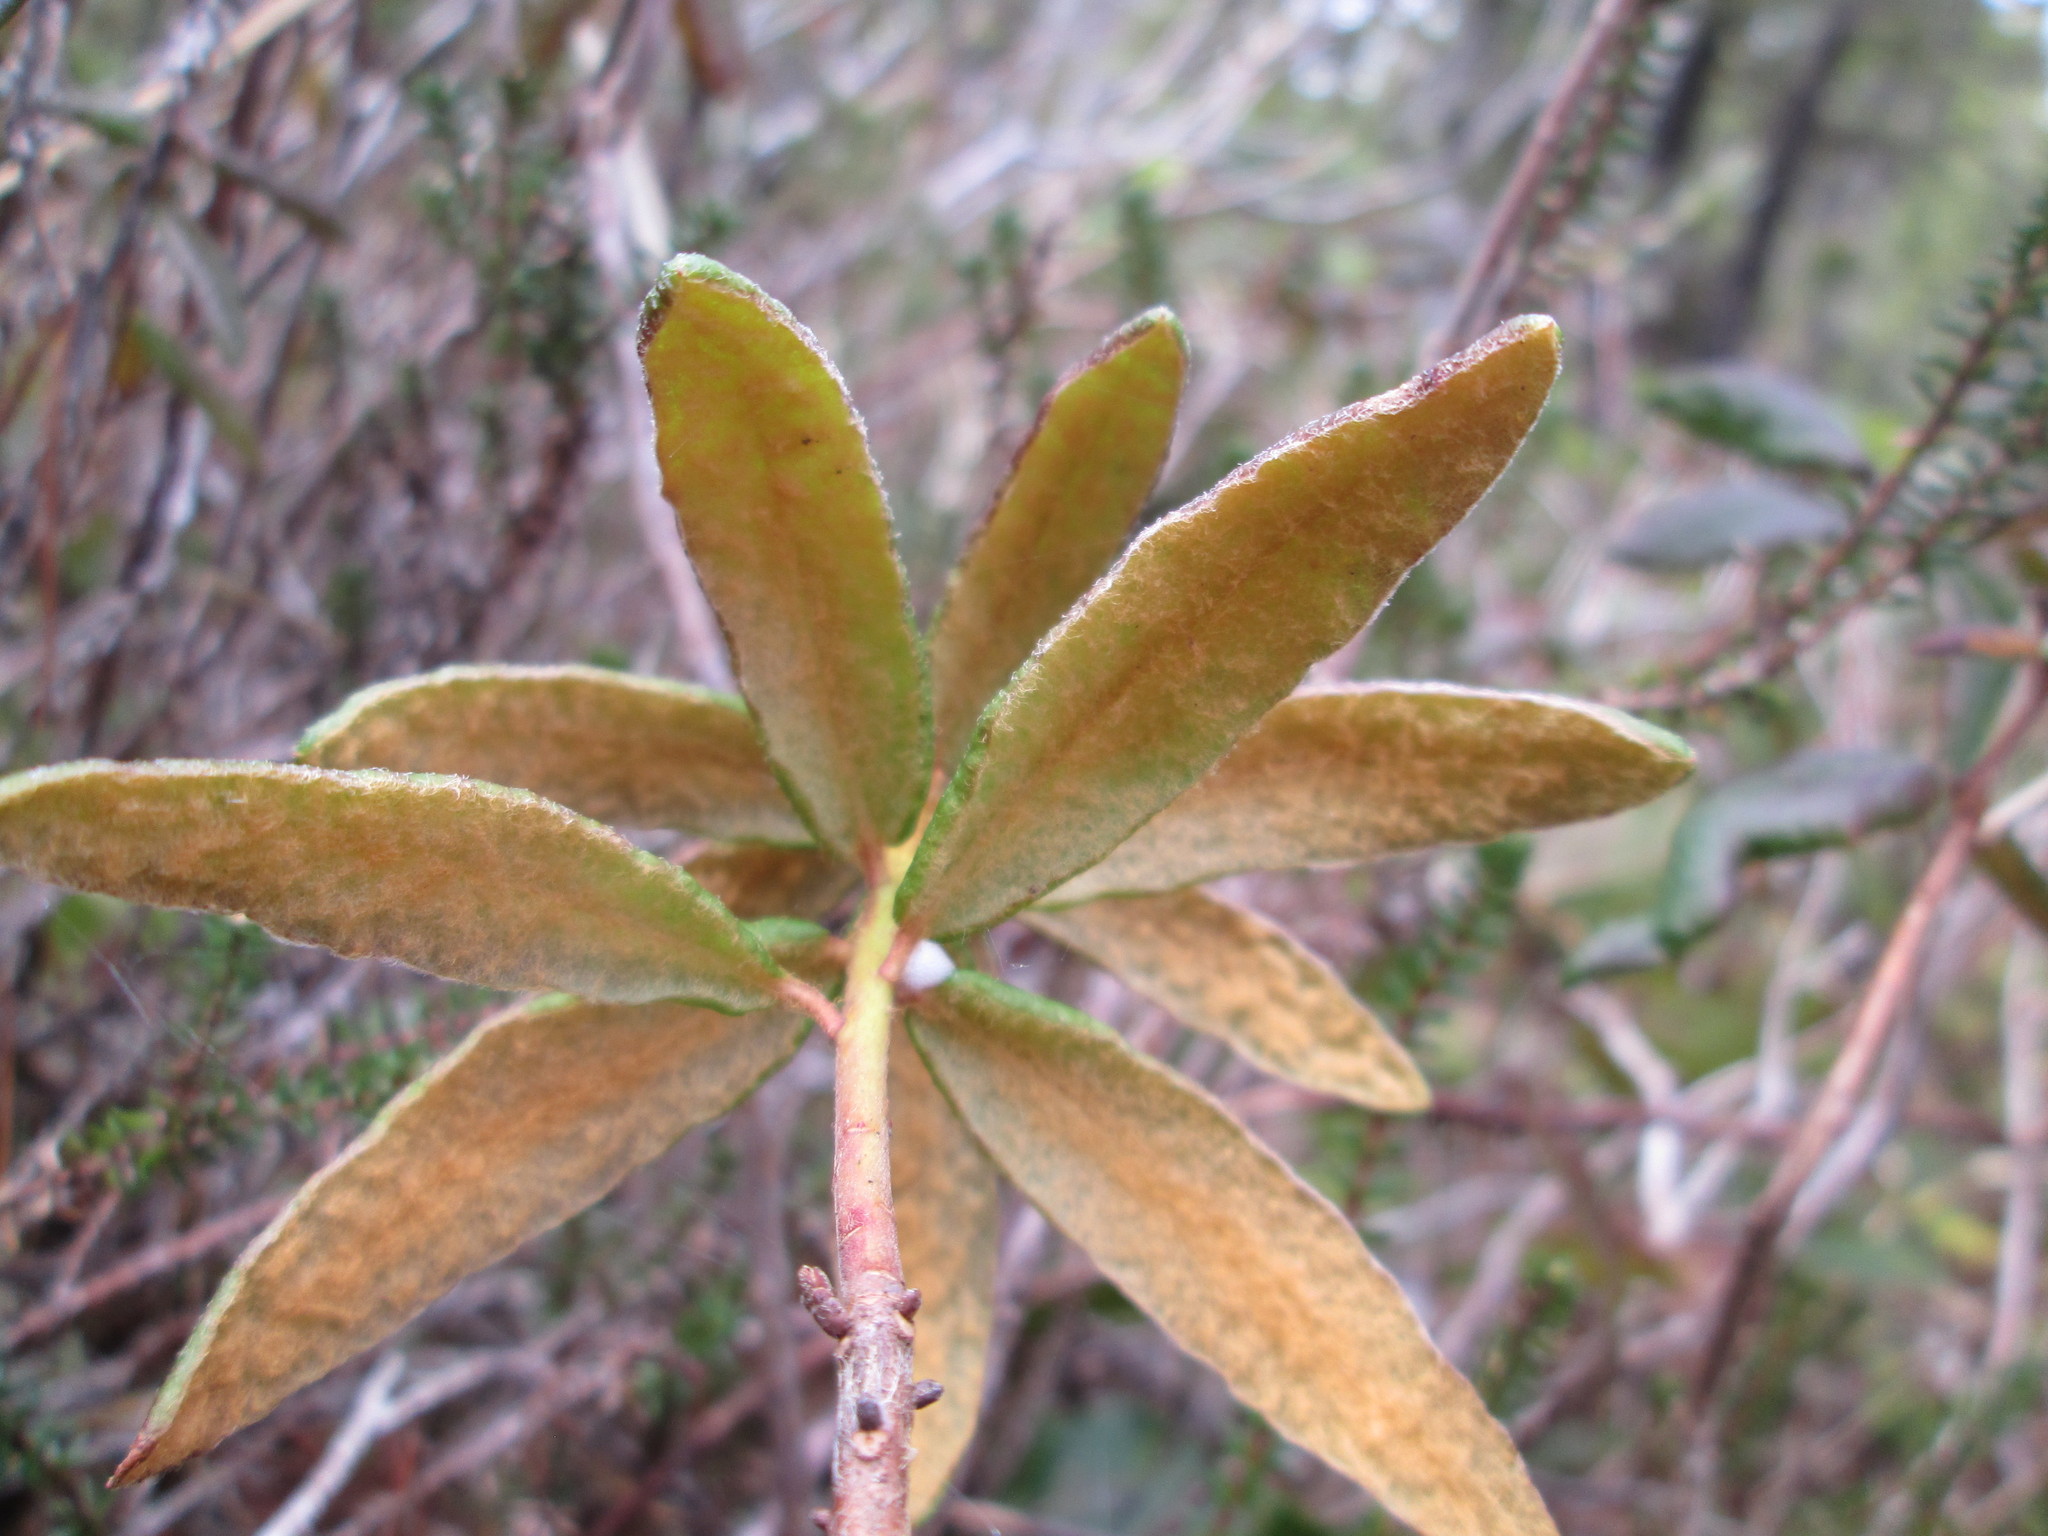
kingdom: Plantae
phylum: Tracheophyta
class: Magnoliopsida
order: Ericales
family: Ericaceae
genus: Rhododendron
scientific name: Rhododendron groenlandicum
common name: Bog labrador tea
